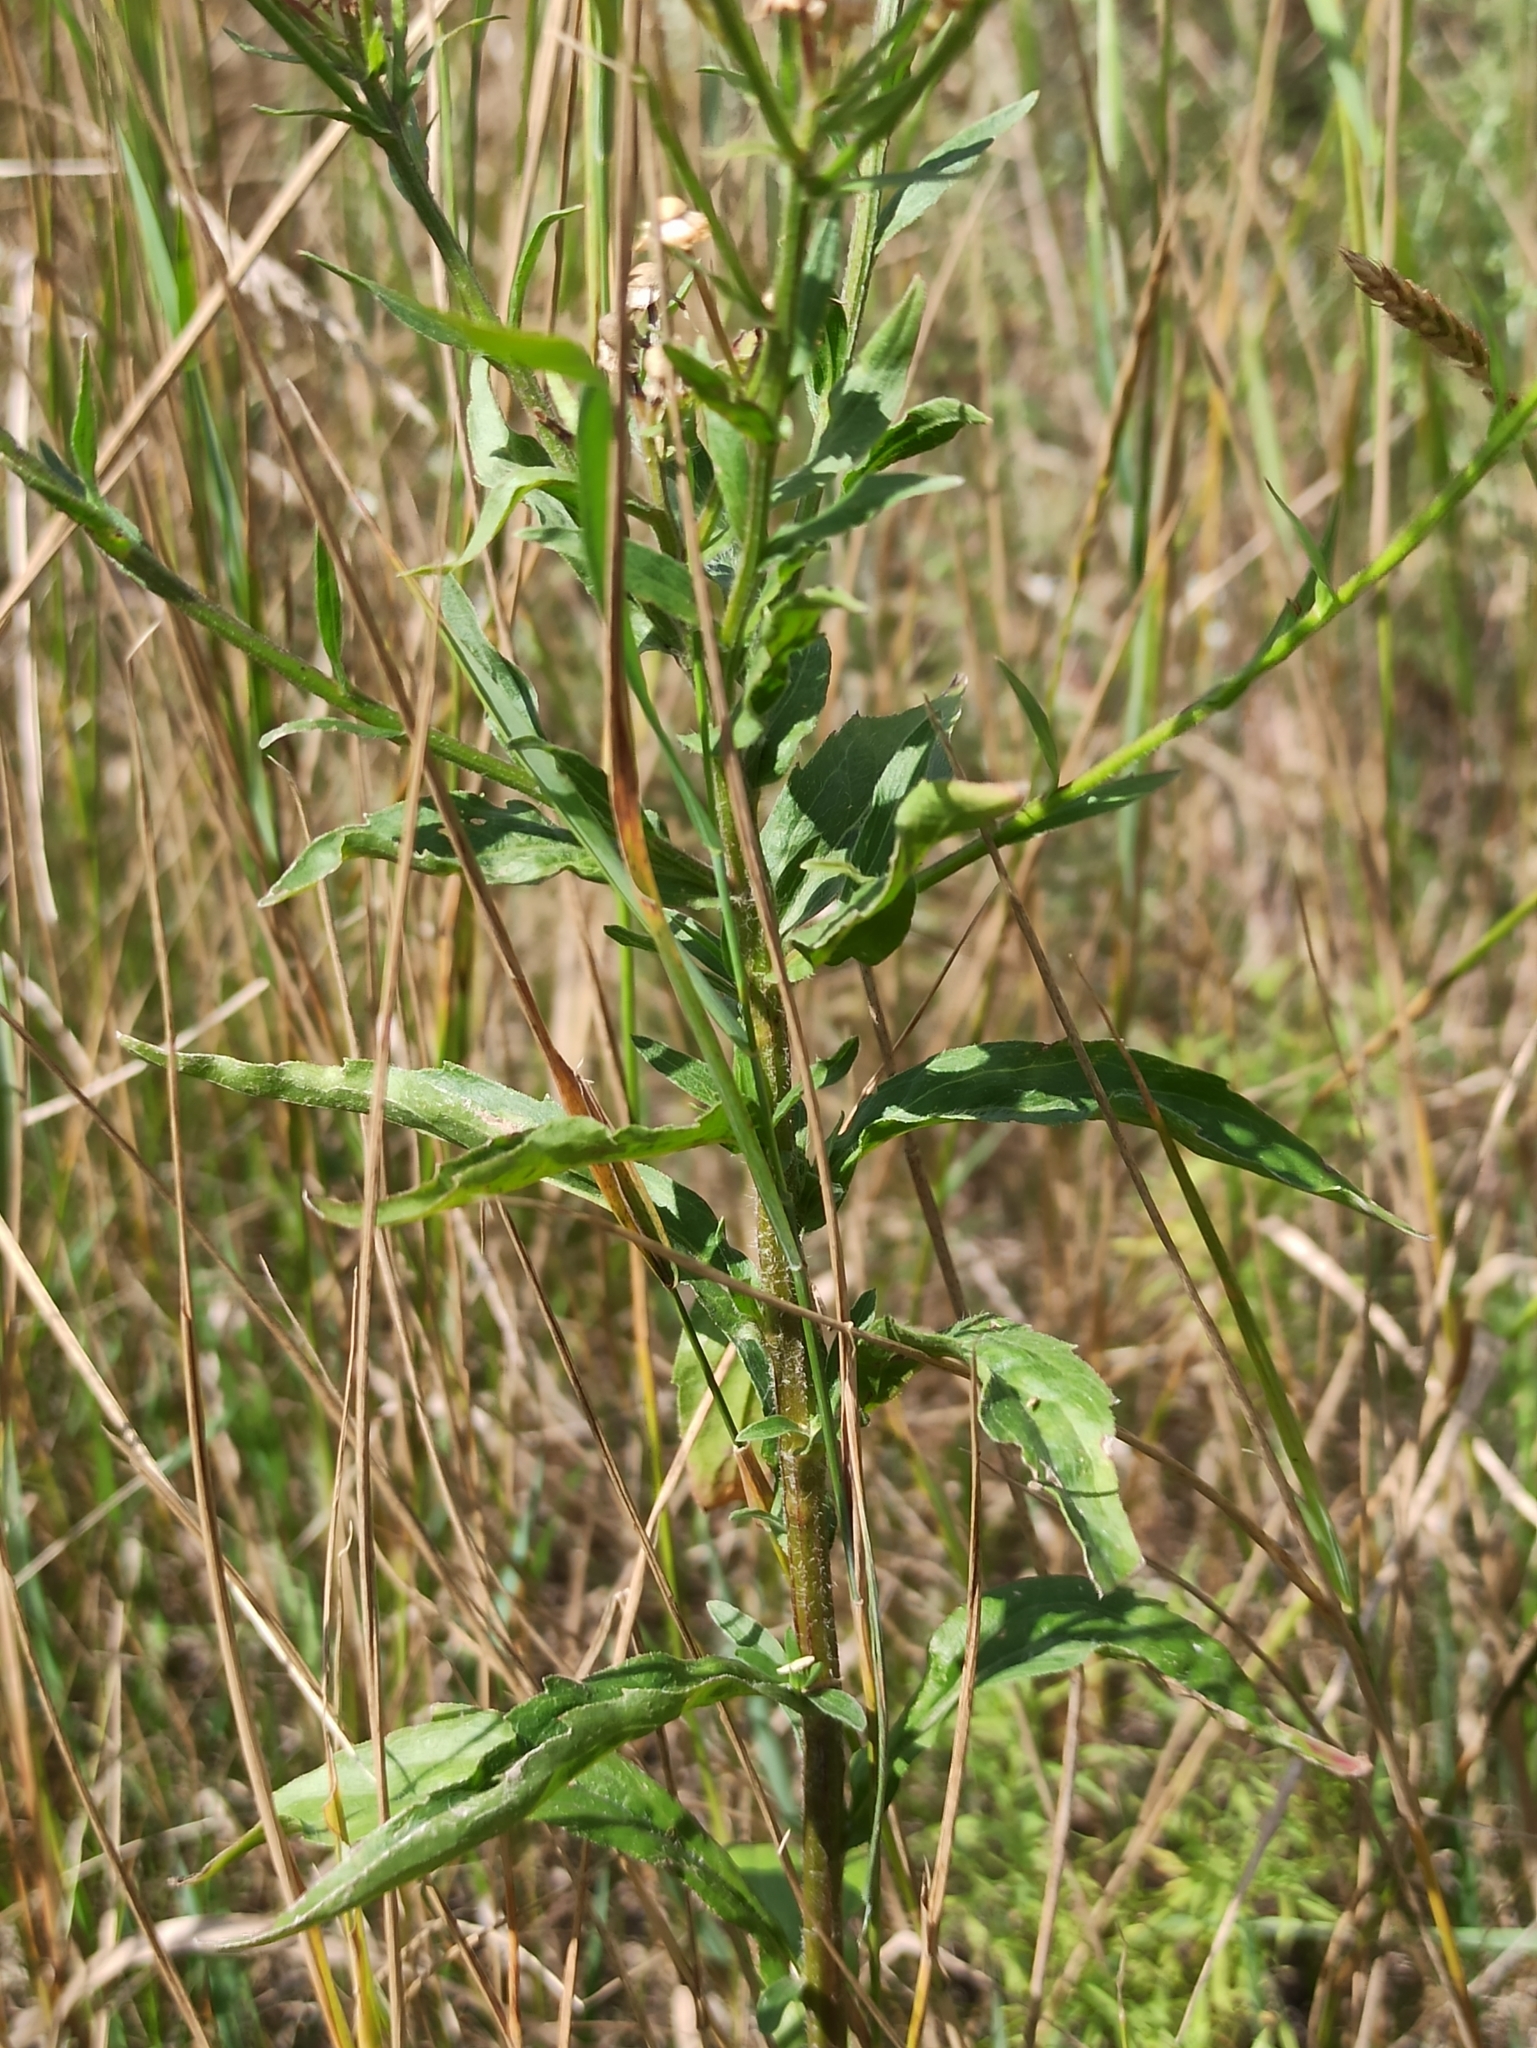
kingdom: Plantae
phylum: Tracheophyta
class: Magnoliopsida
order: Asterales
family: Asteraceae
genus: Erigeron
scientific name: Erigeron annuus
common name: Tall fleabane
